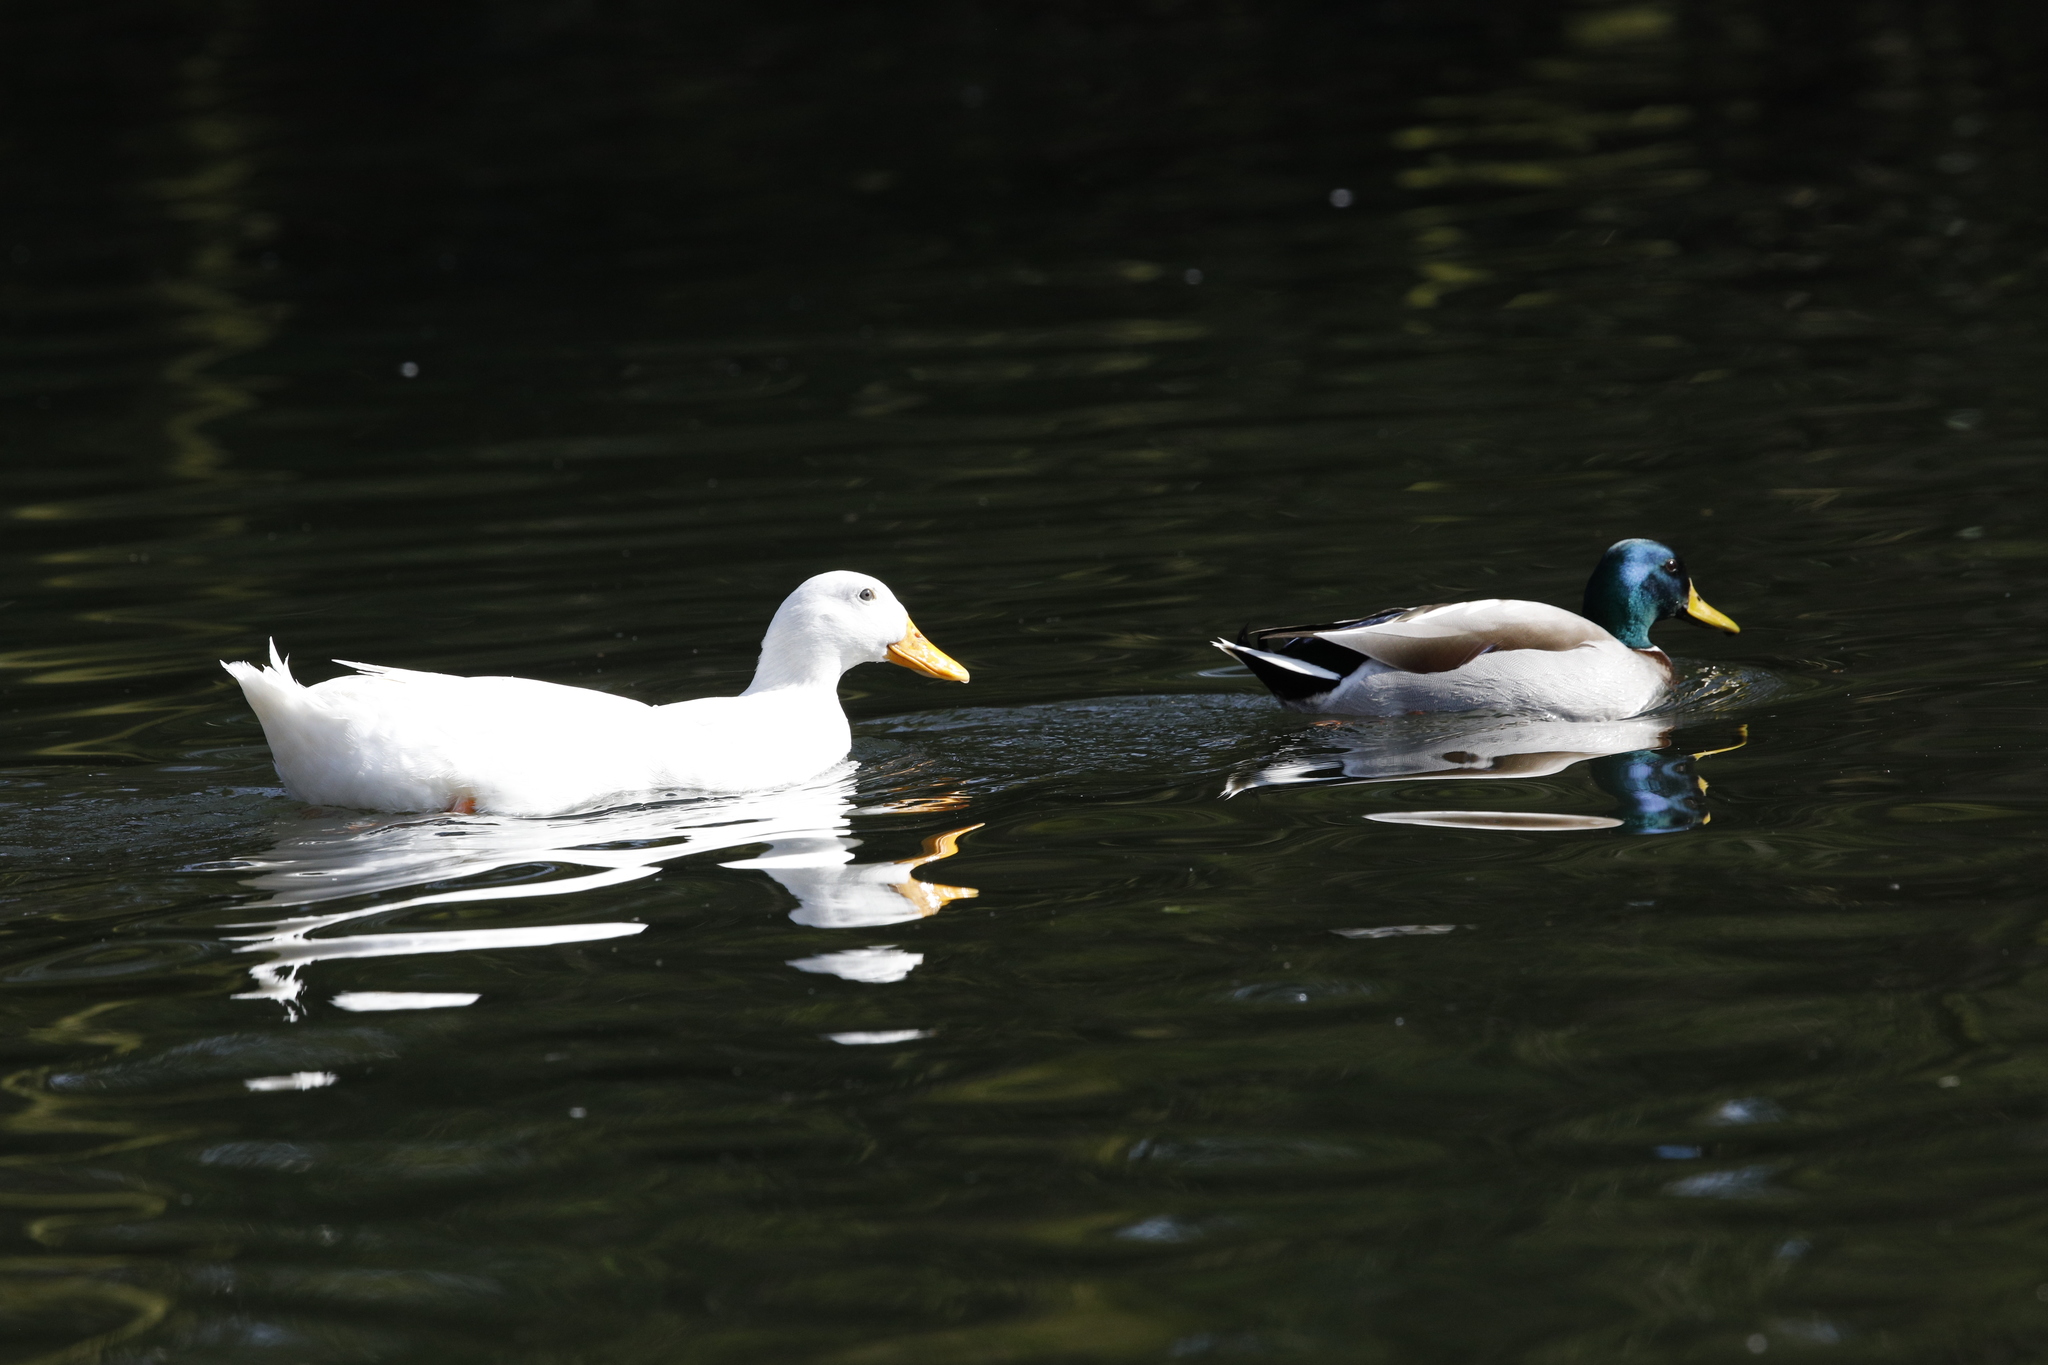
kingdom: Animalia
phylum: Chordata
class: Aves
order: Anseriformes
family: Anatidae
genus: Anas
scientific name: Anas platyrhynchos
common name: Mallard
